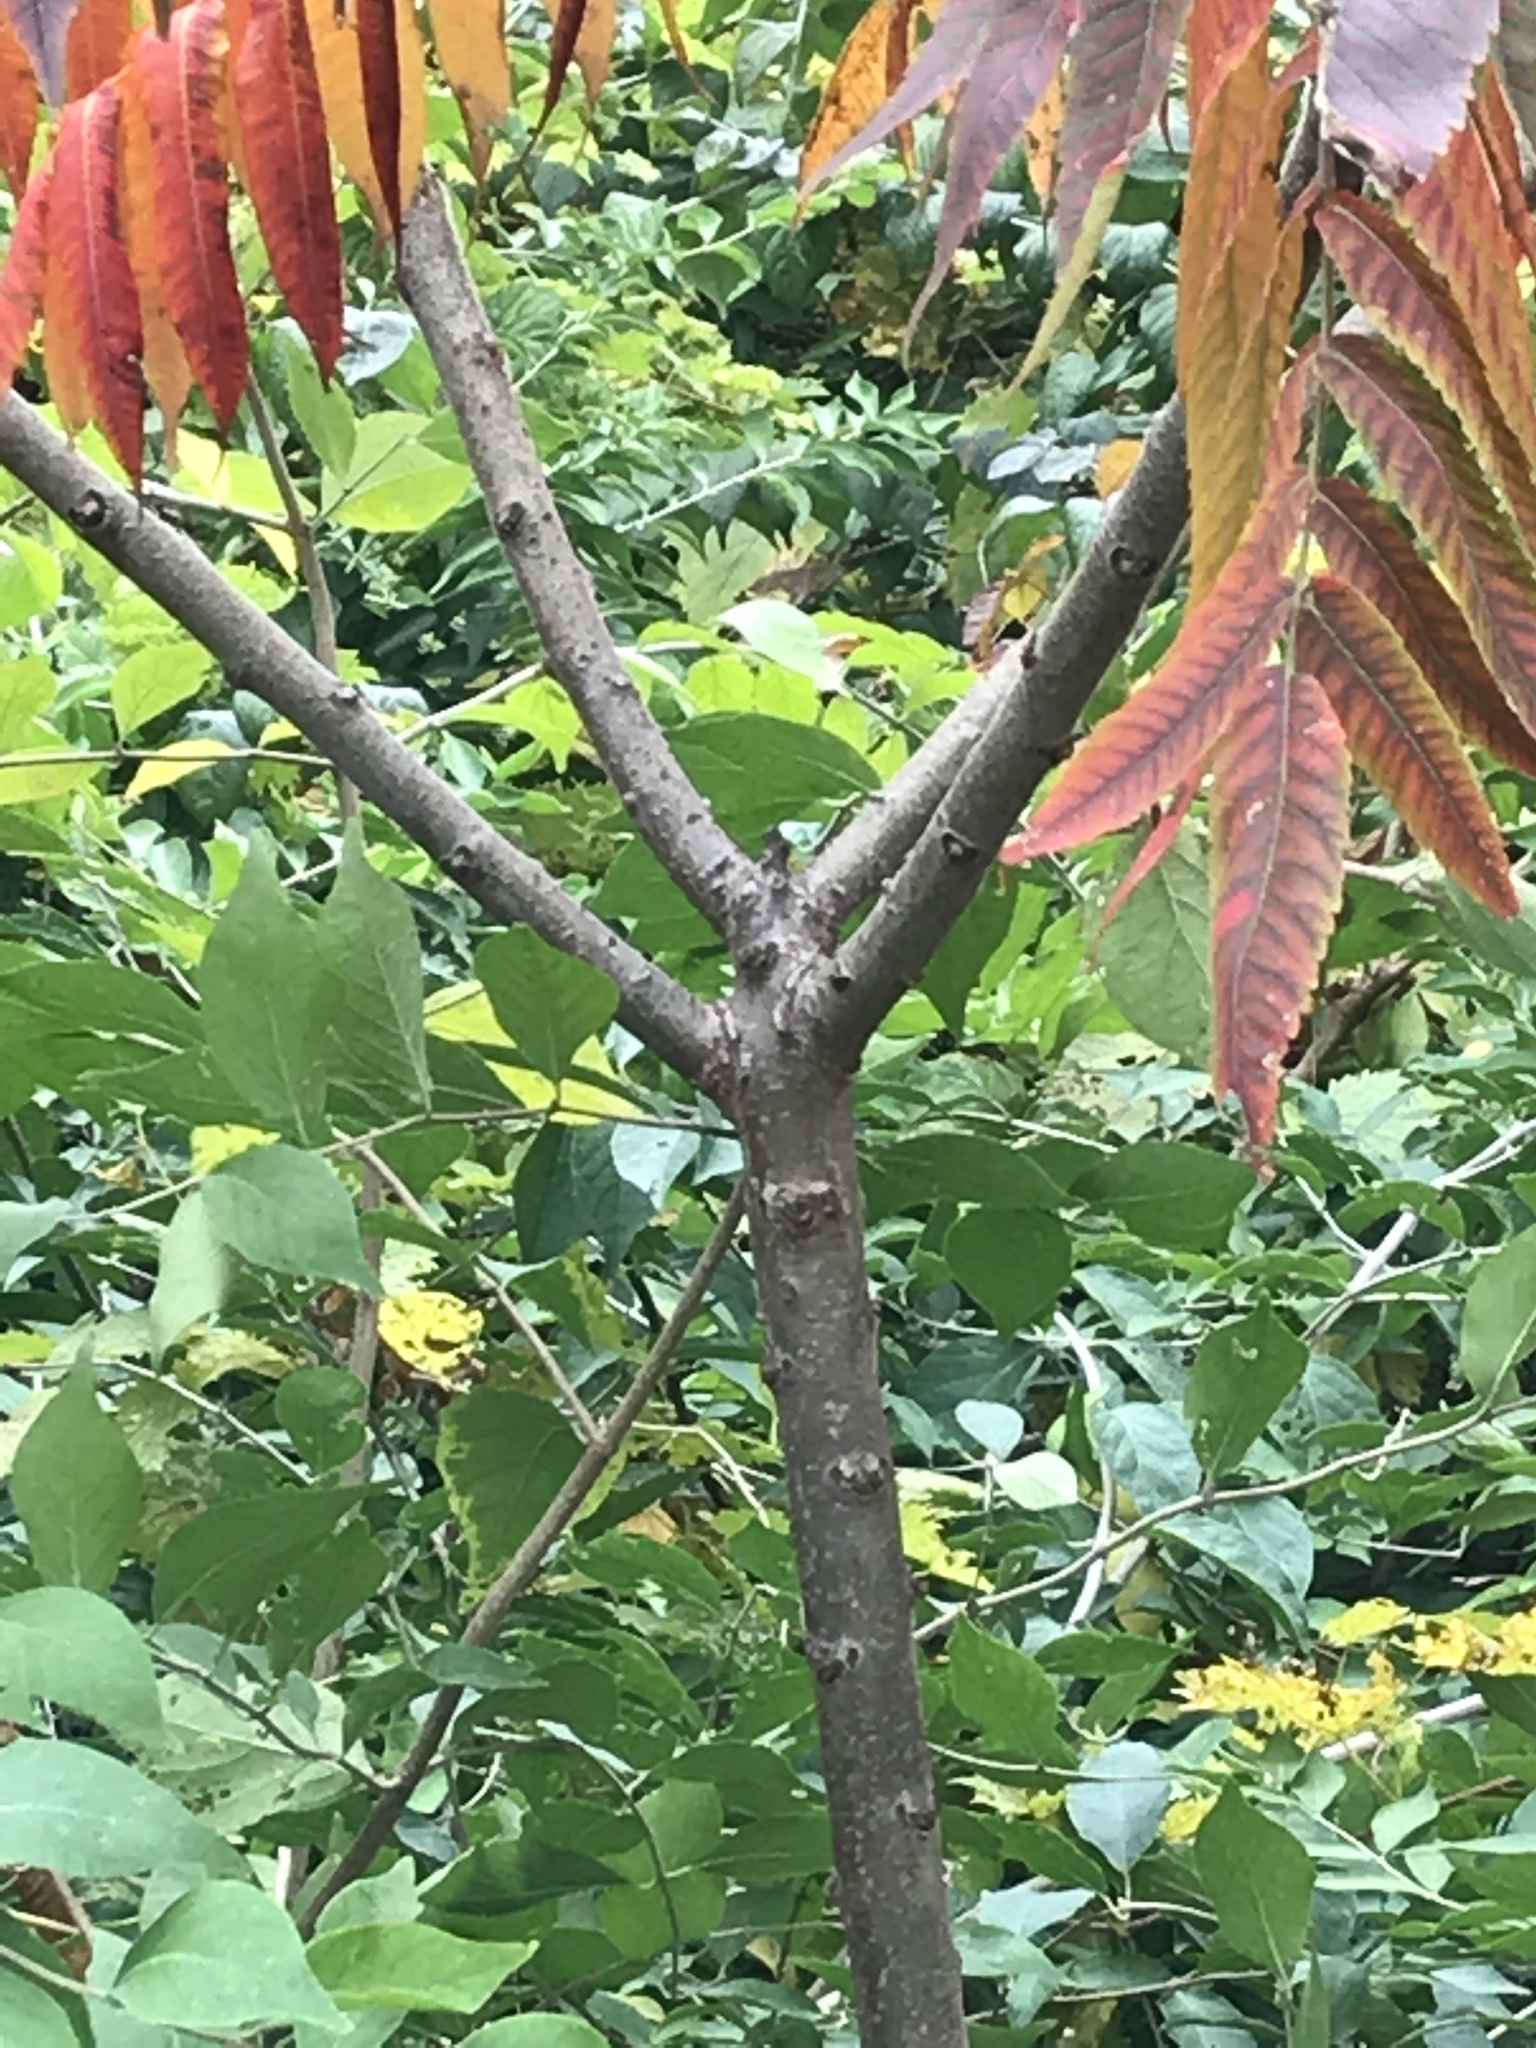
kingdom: Plantae
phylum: Tracheophyta
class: Magnoliopsida
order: Sapindales
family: Anacardiaceae
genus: Rhus
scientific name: Rhus typhina
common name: Staghorn sumac
